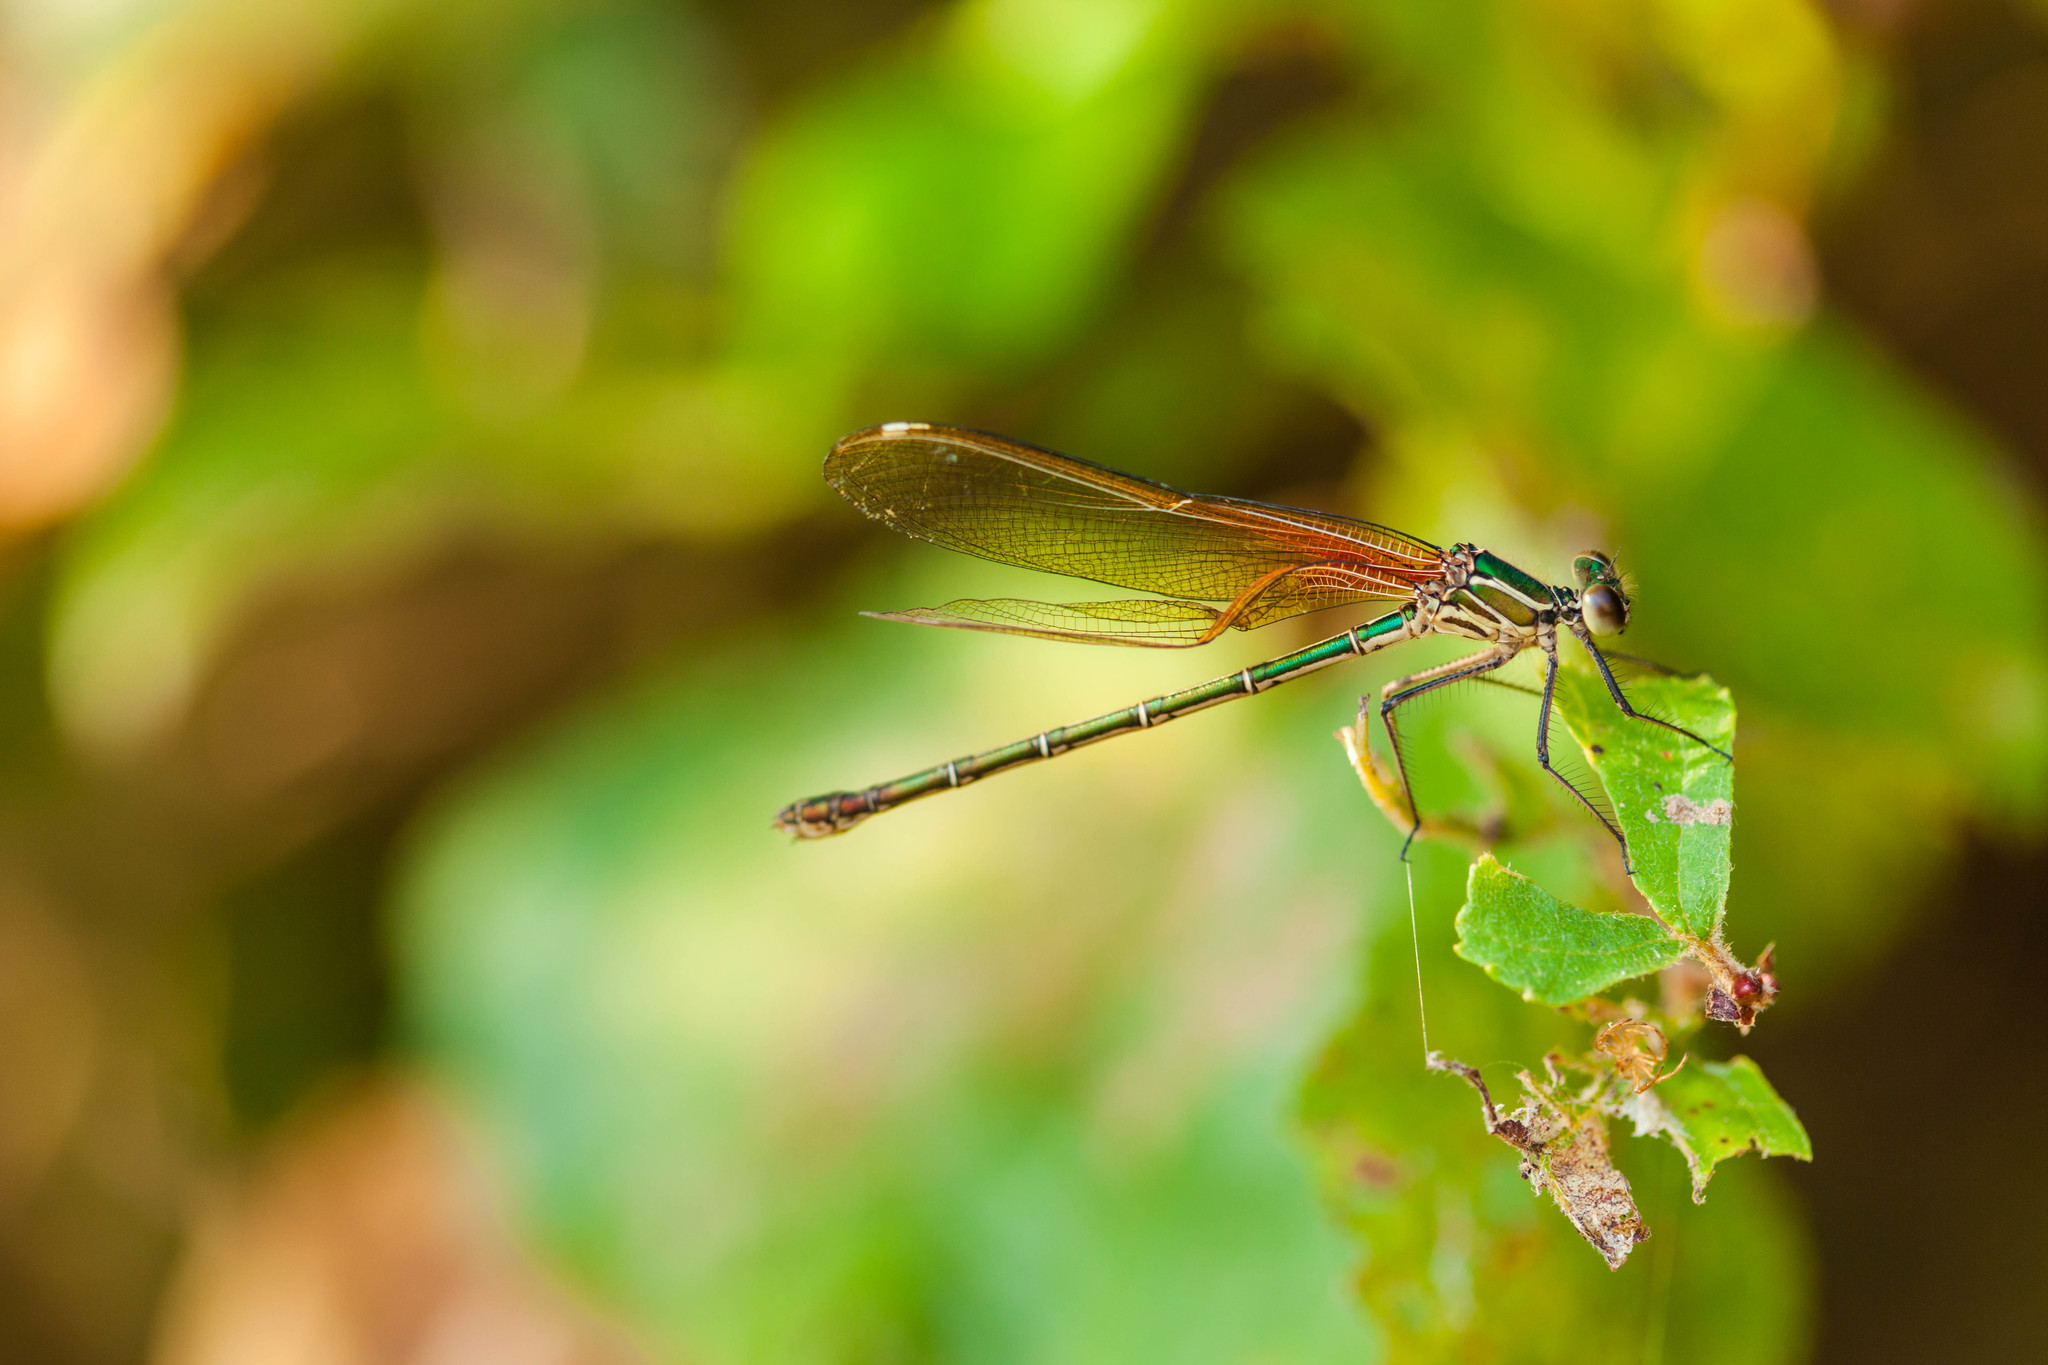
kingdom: Animalia
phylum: Arthropoda
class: Insecta
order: Odonata
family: Calopterygidae
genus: Hetaerina
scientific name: Hetaerina americana
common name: American rubyspot
